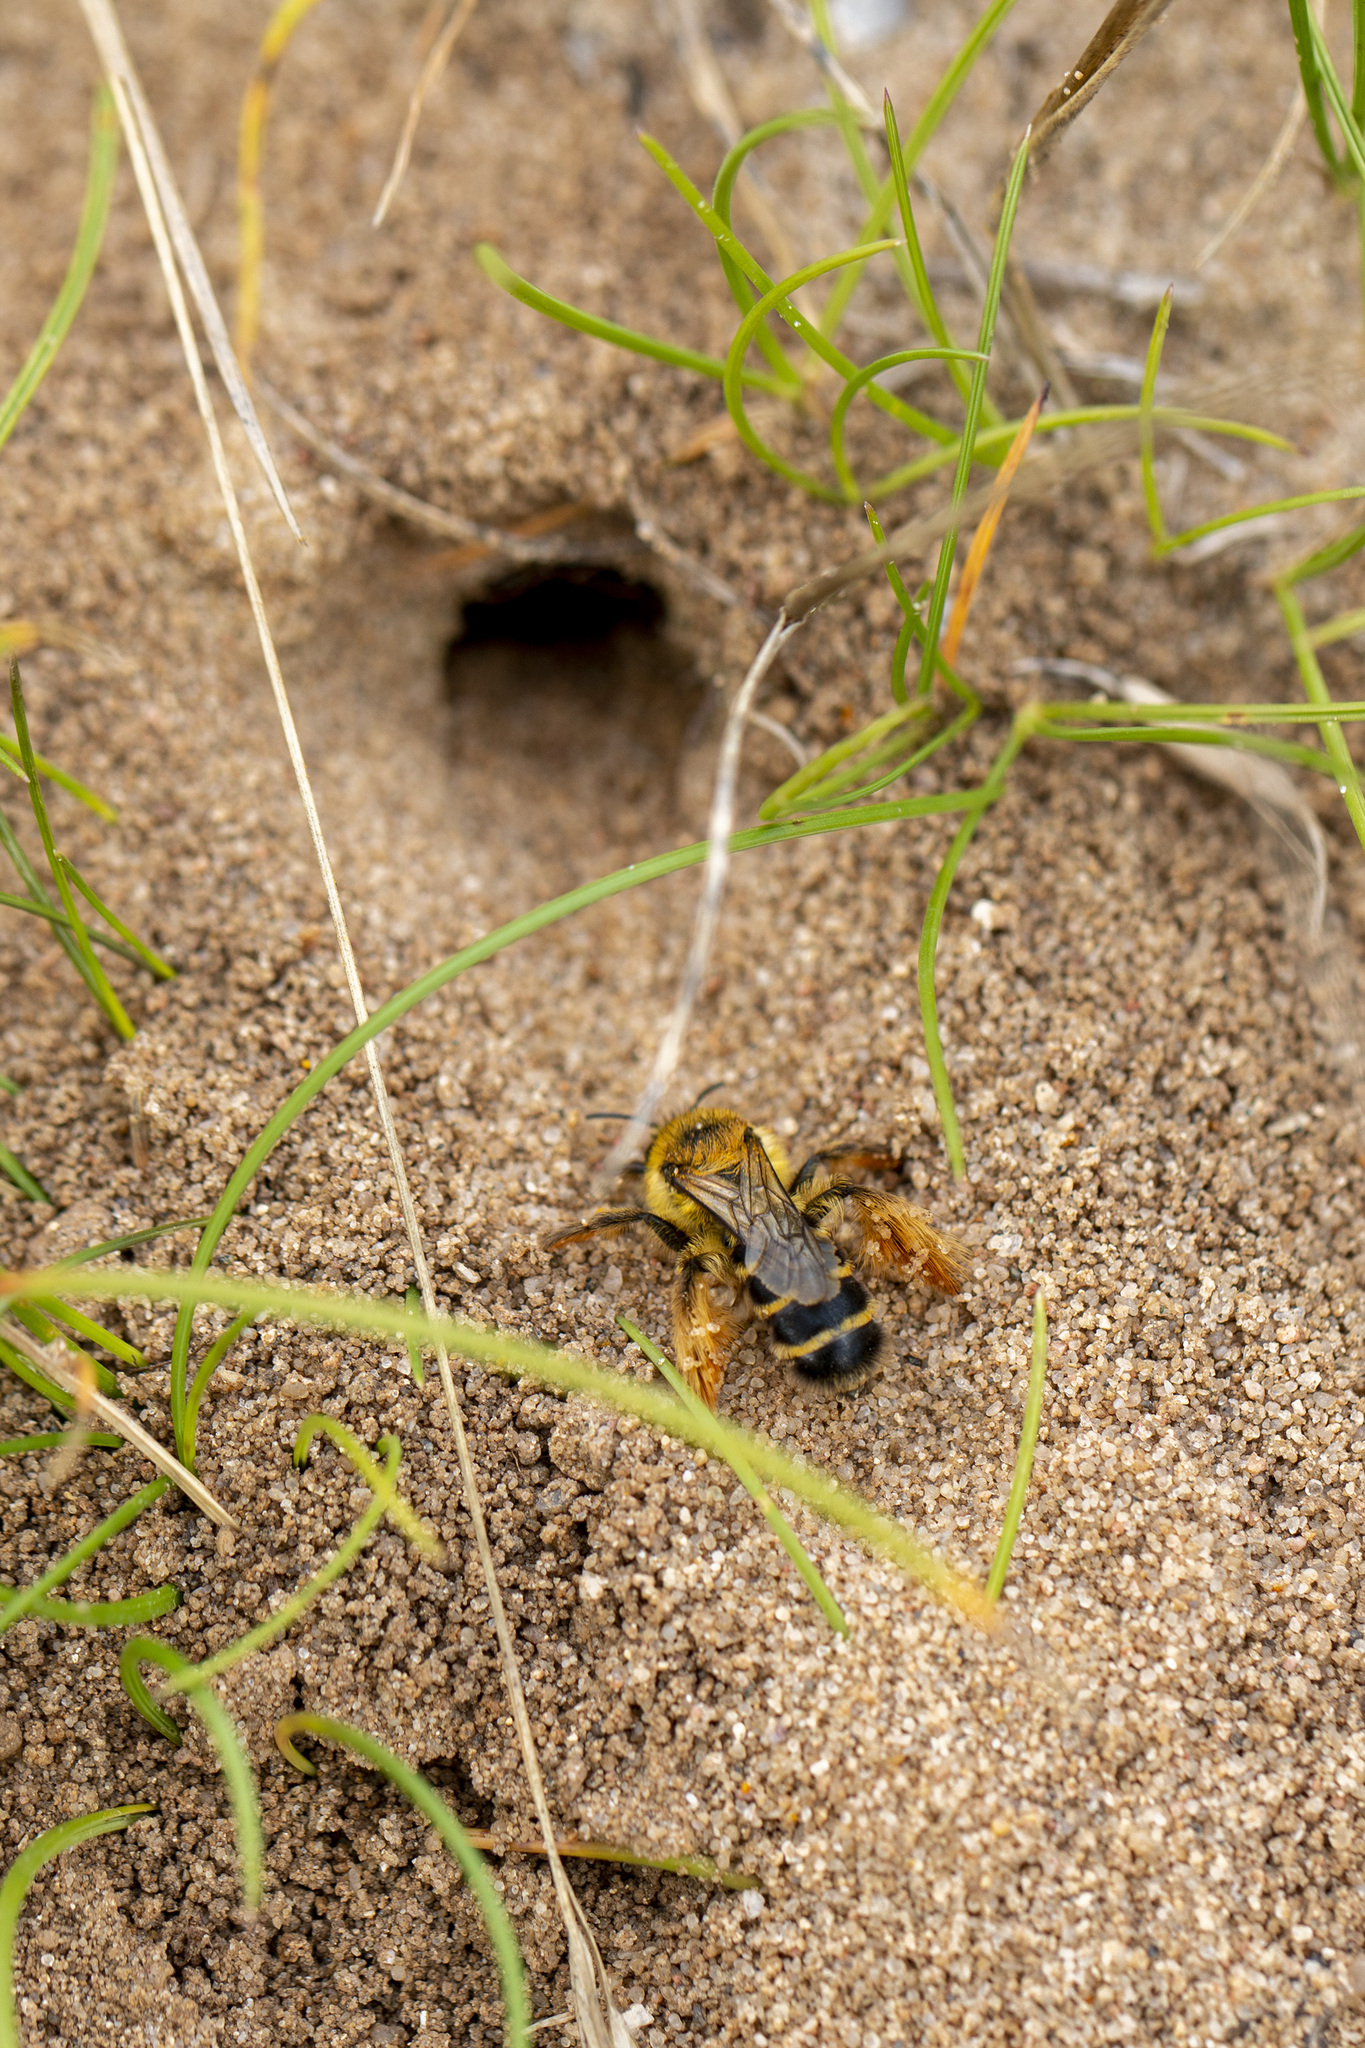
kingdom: Animalia
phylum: Arthropoda
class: Insecta
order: Hymenoptera
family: Melittidae
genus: Dasypoda
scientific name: Dasypoda hirtipes
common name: Pantaloon bee
